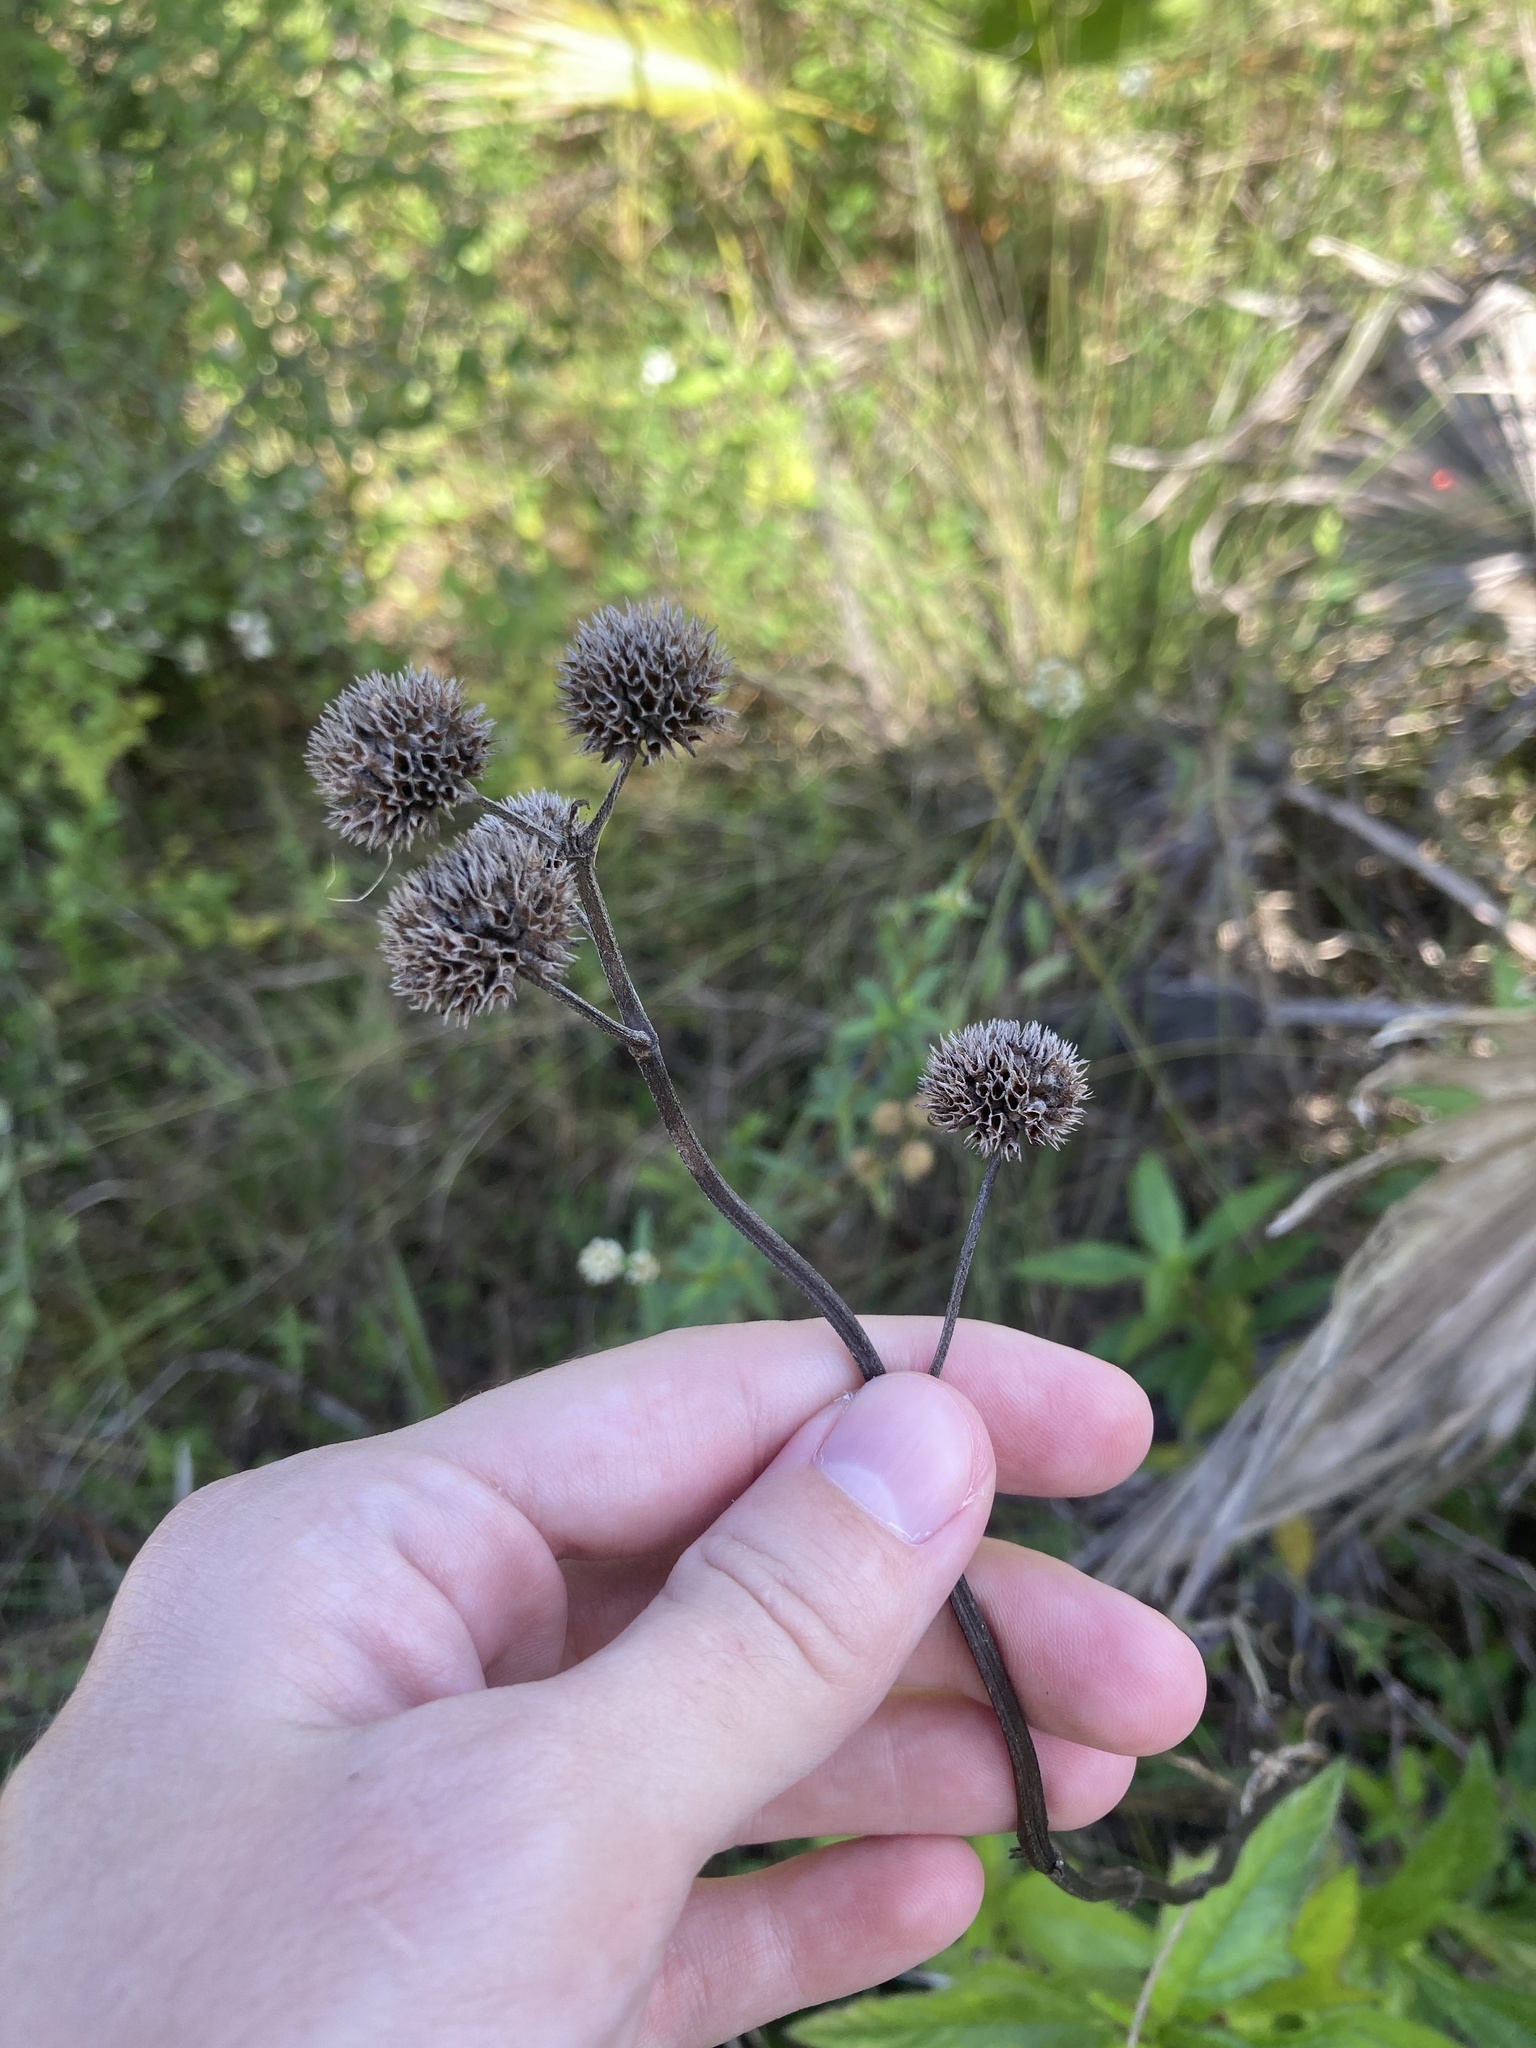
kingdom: Plantae
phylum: Tracheophyta
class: Magnoliopsida
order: Lamiales
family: Lamiaceae
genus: Hyptis
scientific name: Hyptis alata
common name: Cluster bush-mint
